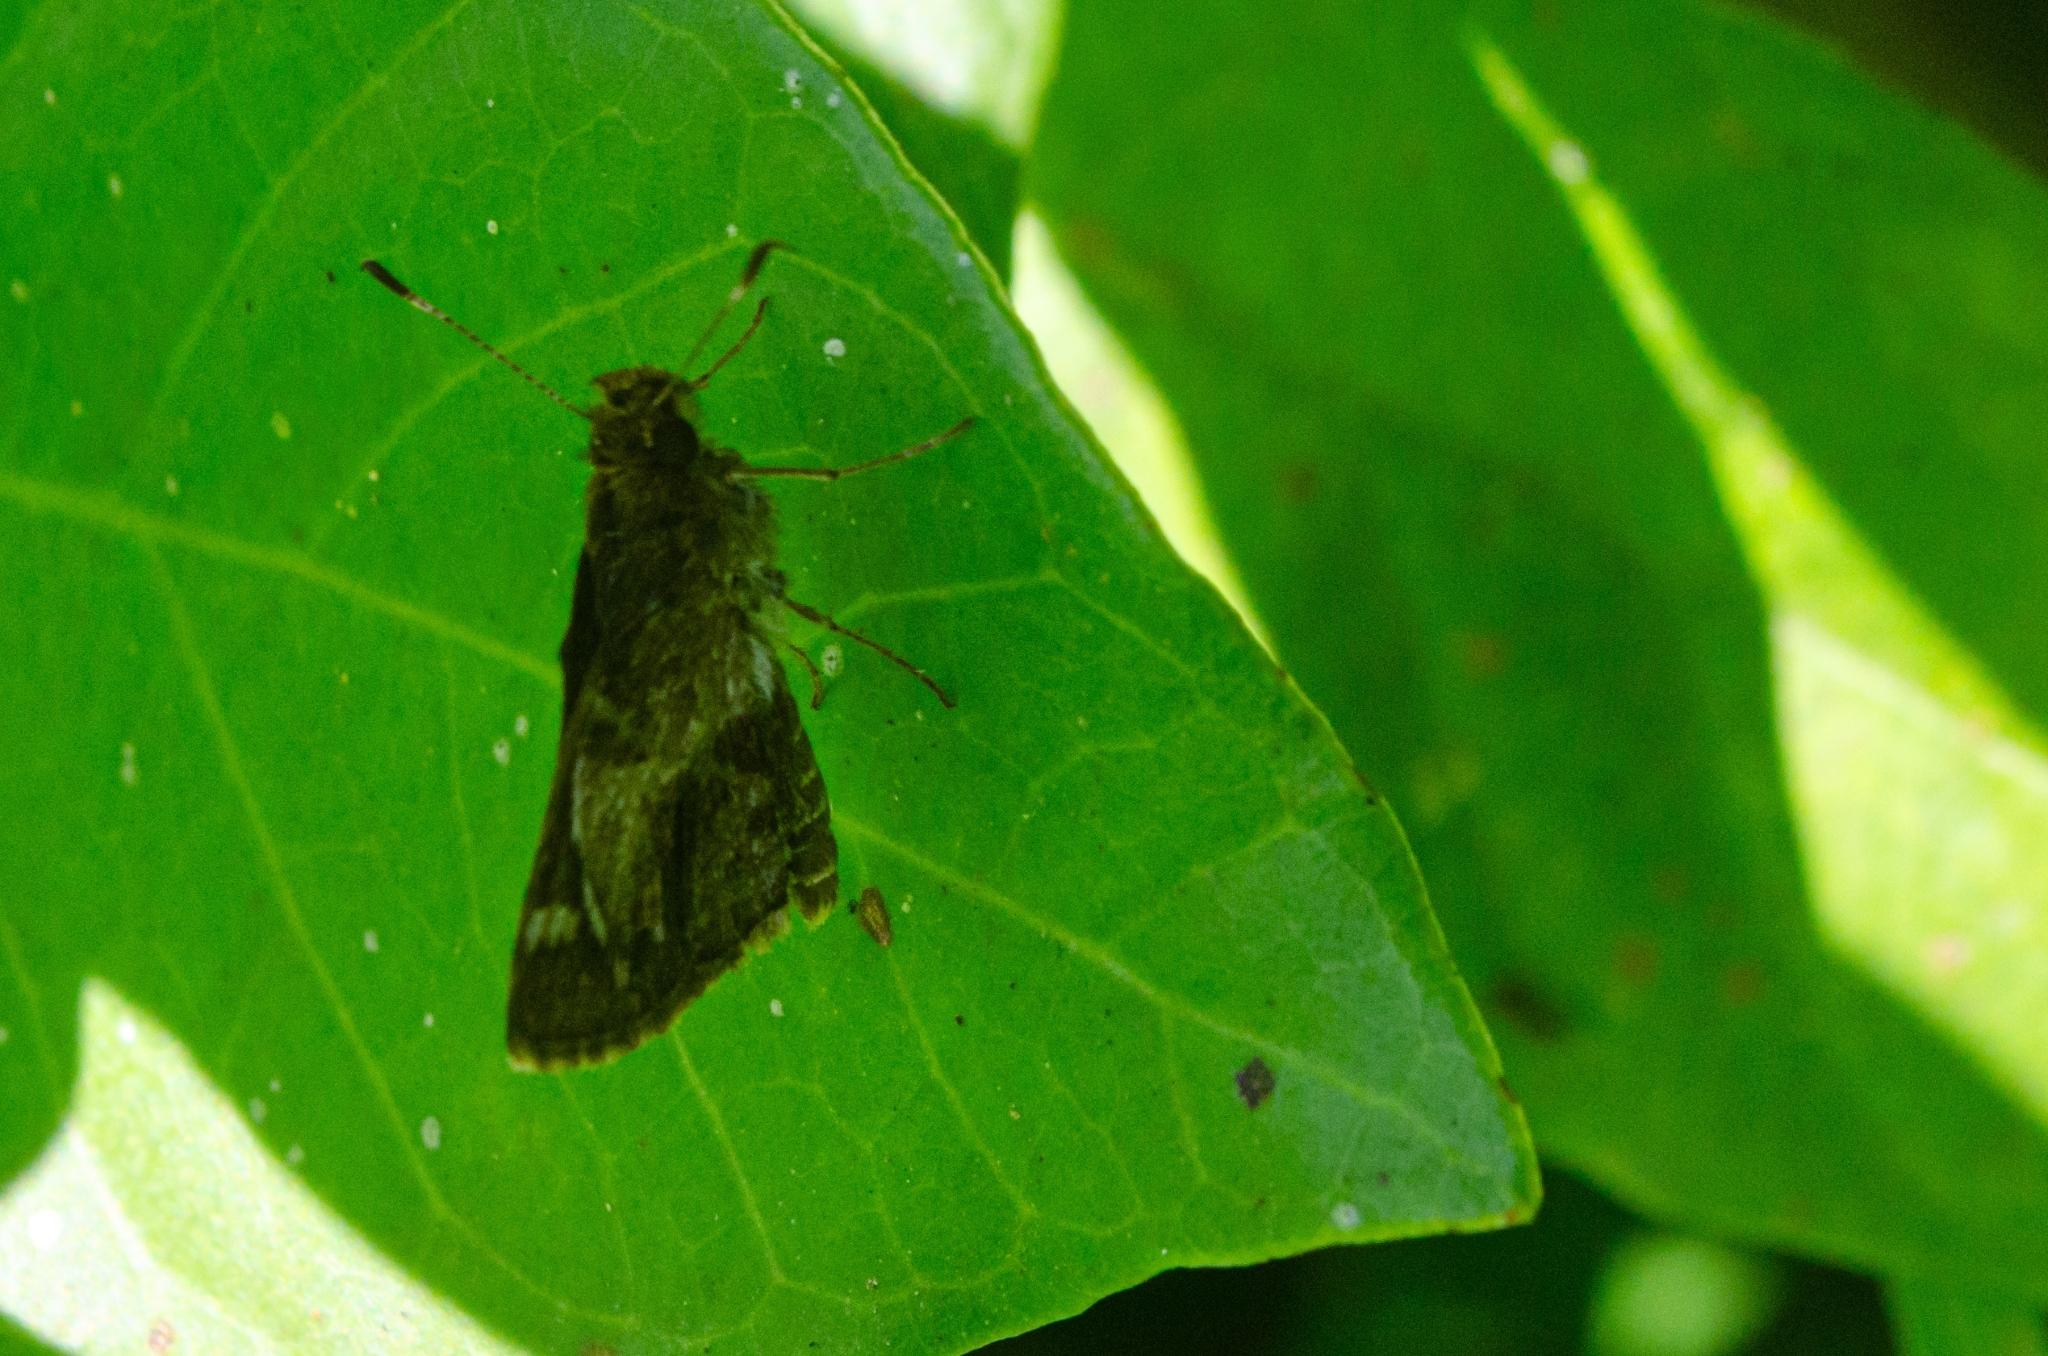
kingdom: Animalia
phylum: Arthropoda
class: Insecta
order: Lepidoptera
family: Hesperiidae
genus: Callimormus
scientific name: Callimormus
